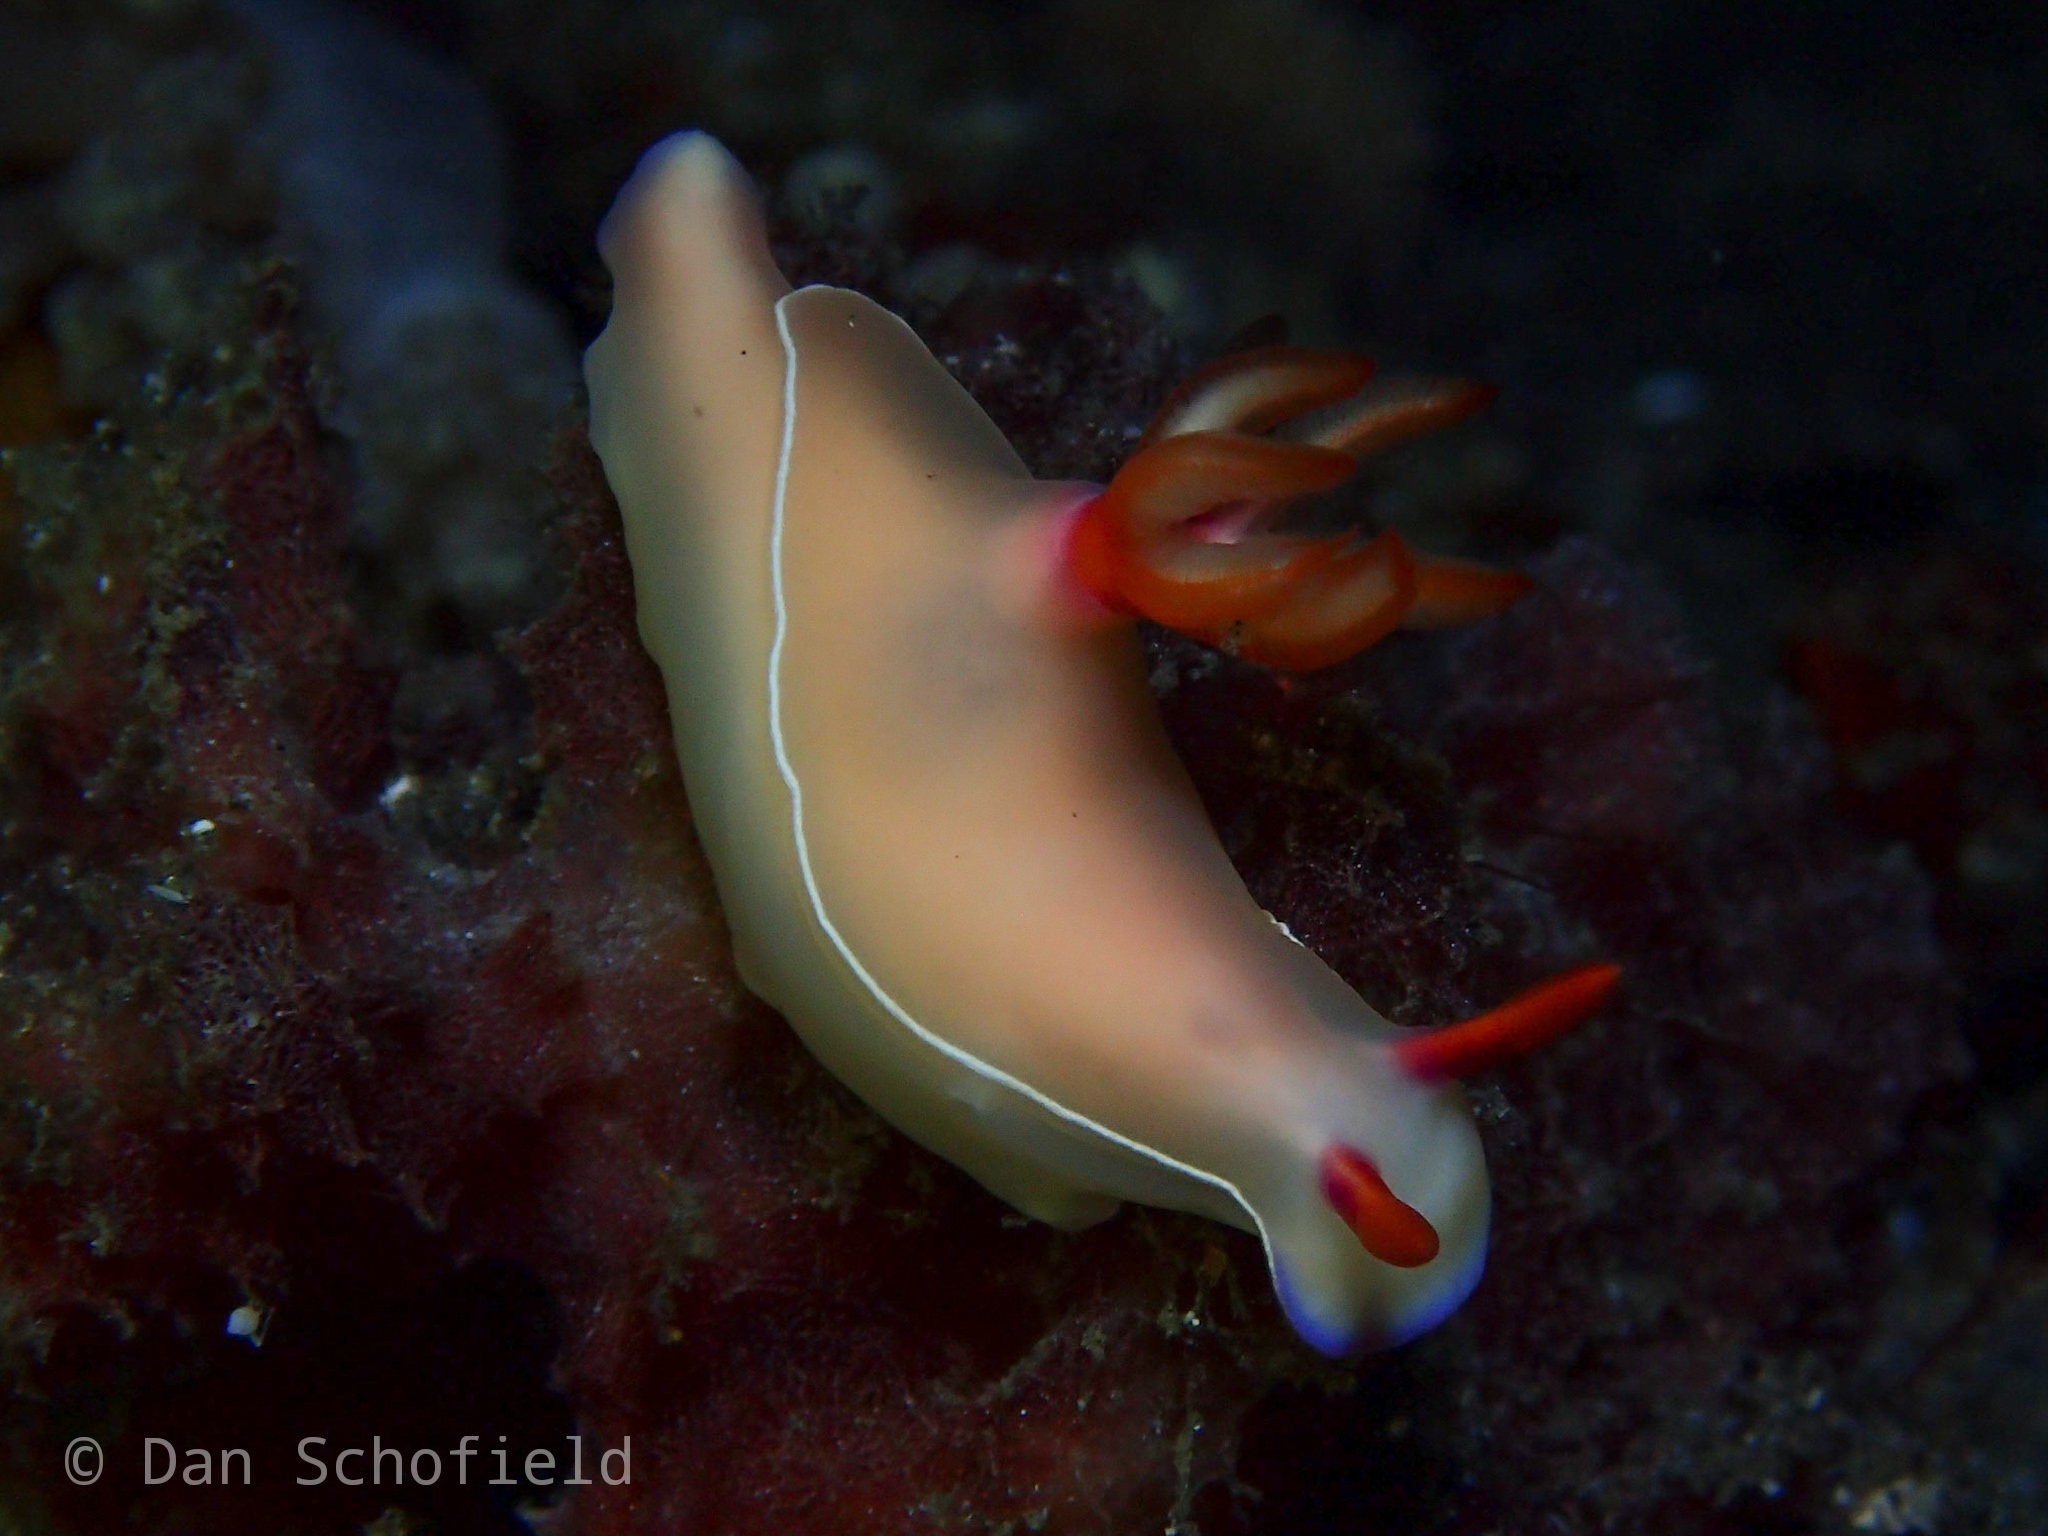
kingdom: Animalia
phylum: Mollusca
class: Gastropoda
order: Nudibranchia
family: Chromodorididae
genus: Hypselodoris
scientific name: Hypselodoris bullockii
